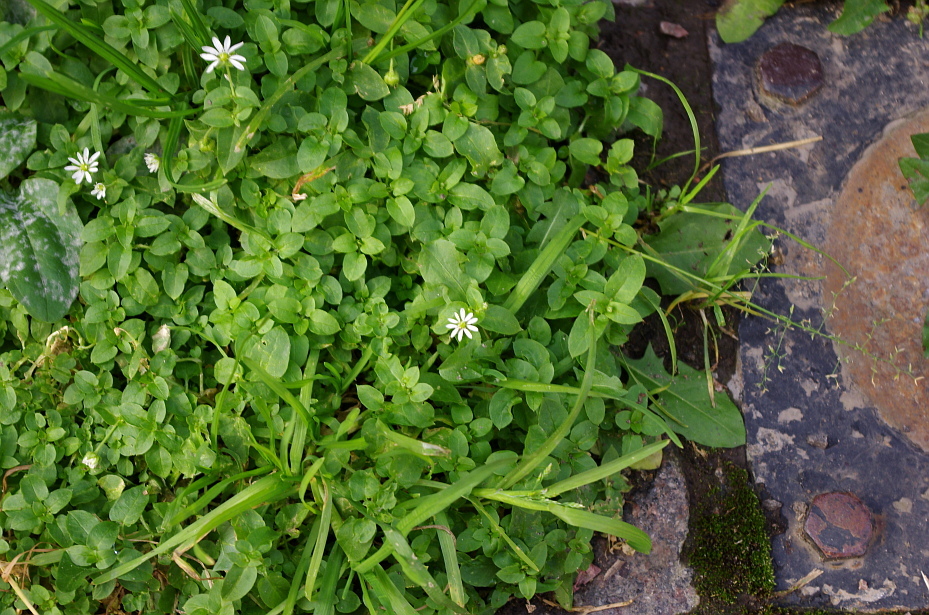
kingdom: Plantae
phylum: Tracheophyta
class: Magnoliopsida
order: Caryophyllales
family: Caryophyllaceae
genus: Stellaria
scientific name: Stellaria media
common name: Common chickweed
